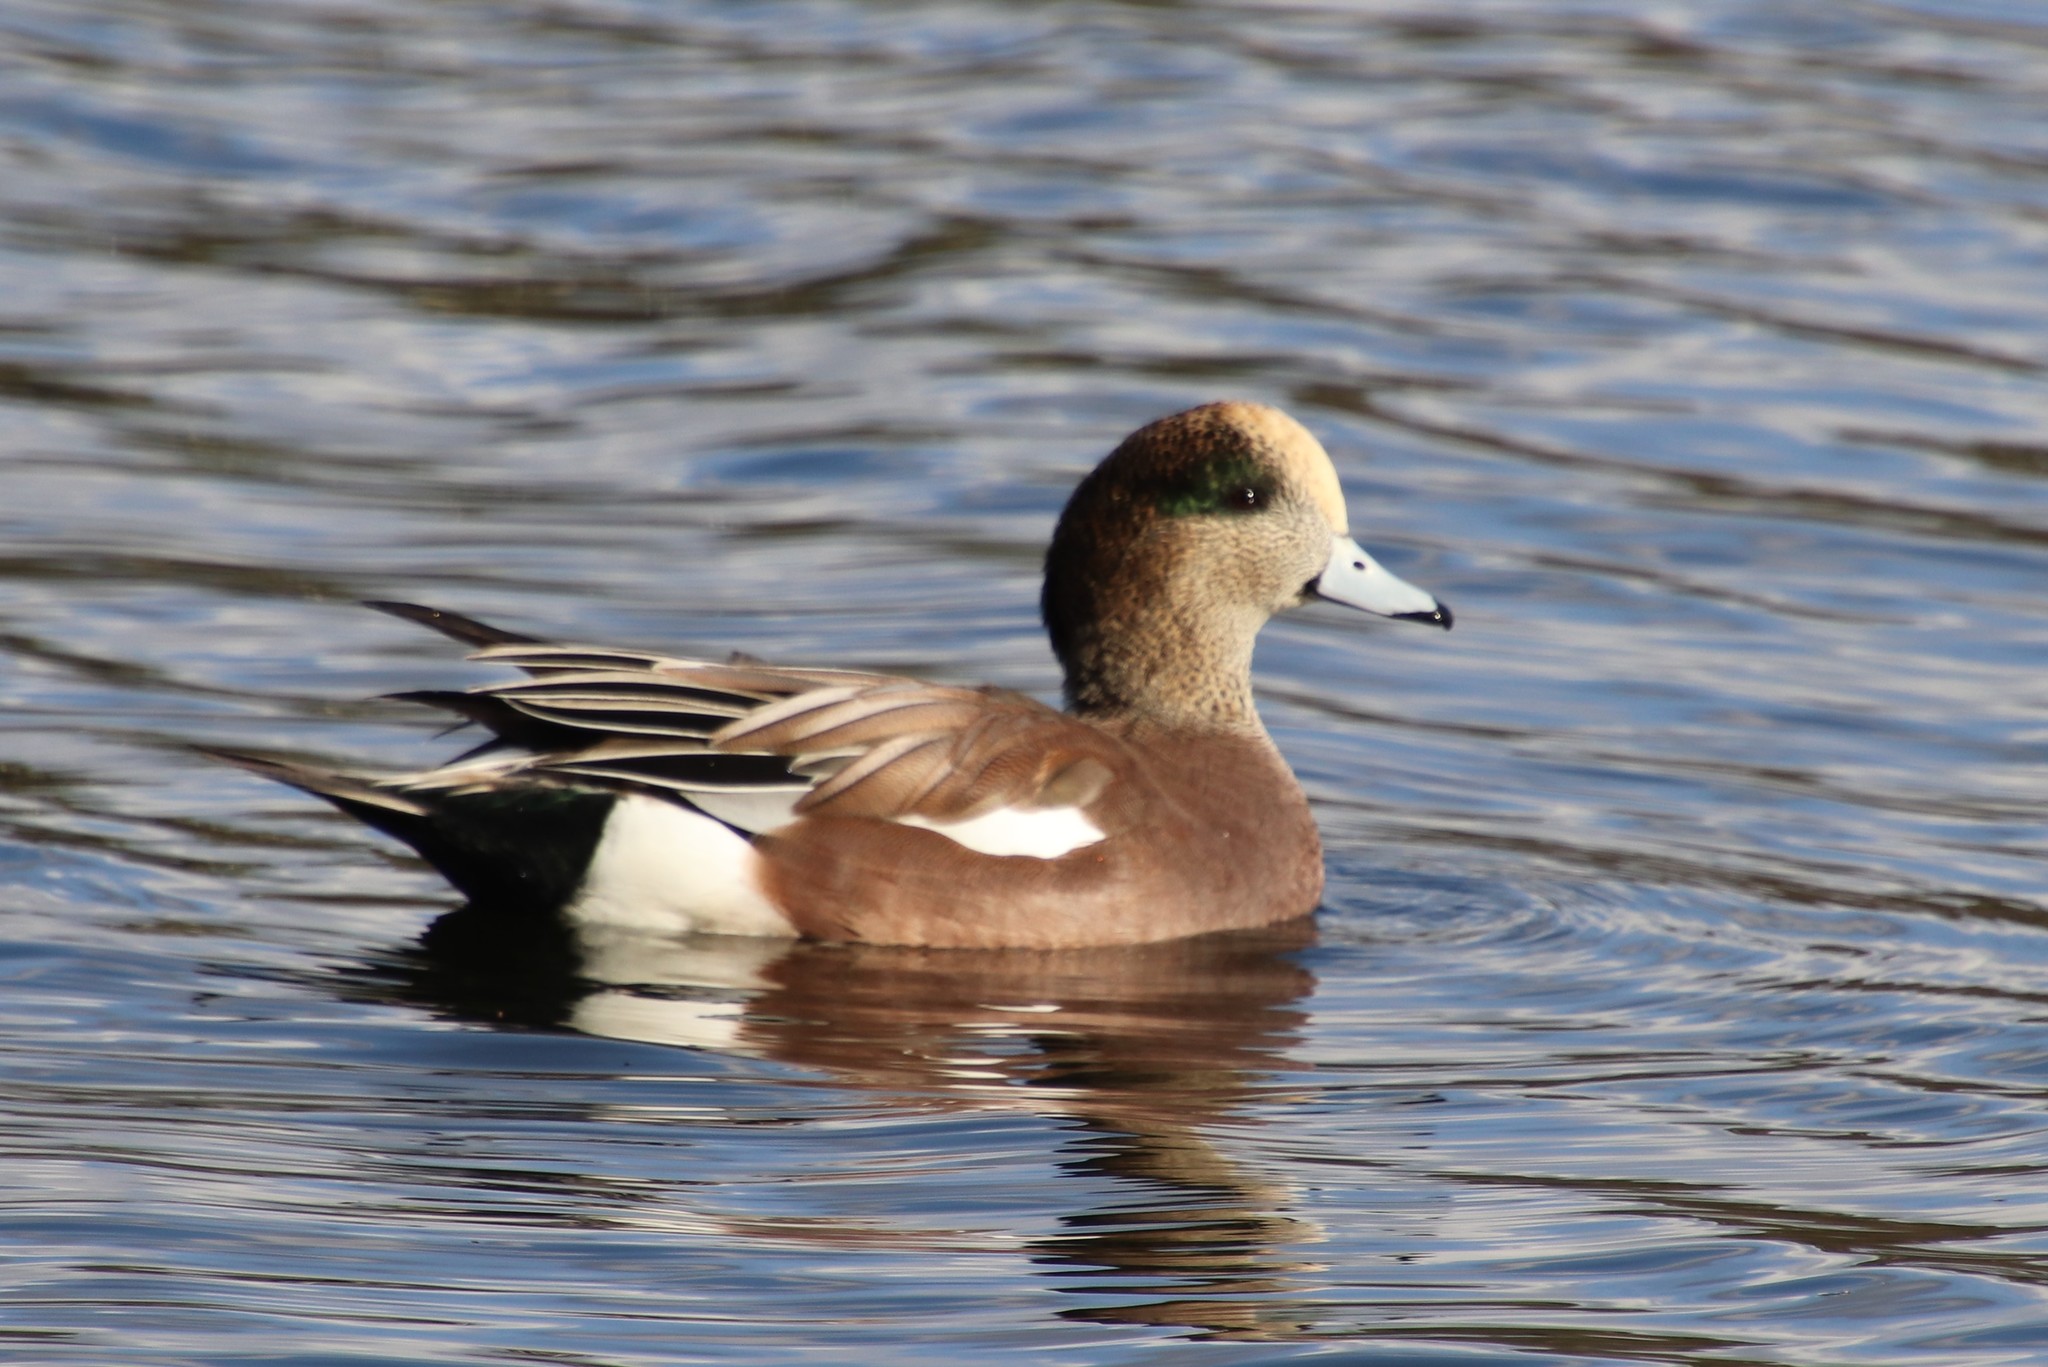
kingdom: Animalia
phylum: Chordata
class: Aves
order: Anseriformes
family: Anatidae
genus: Mareca
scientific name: Mareca americana
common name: American wigeon
